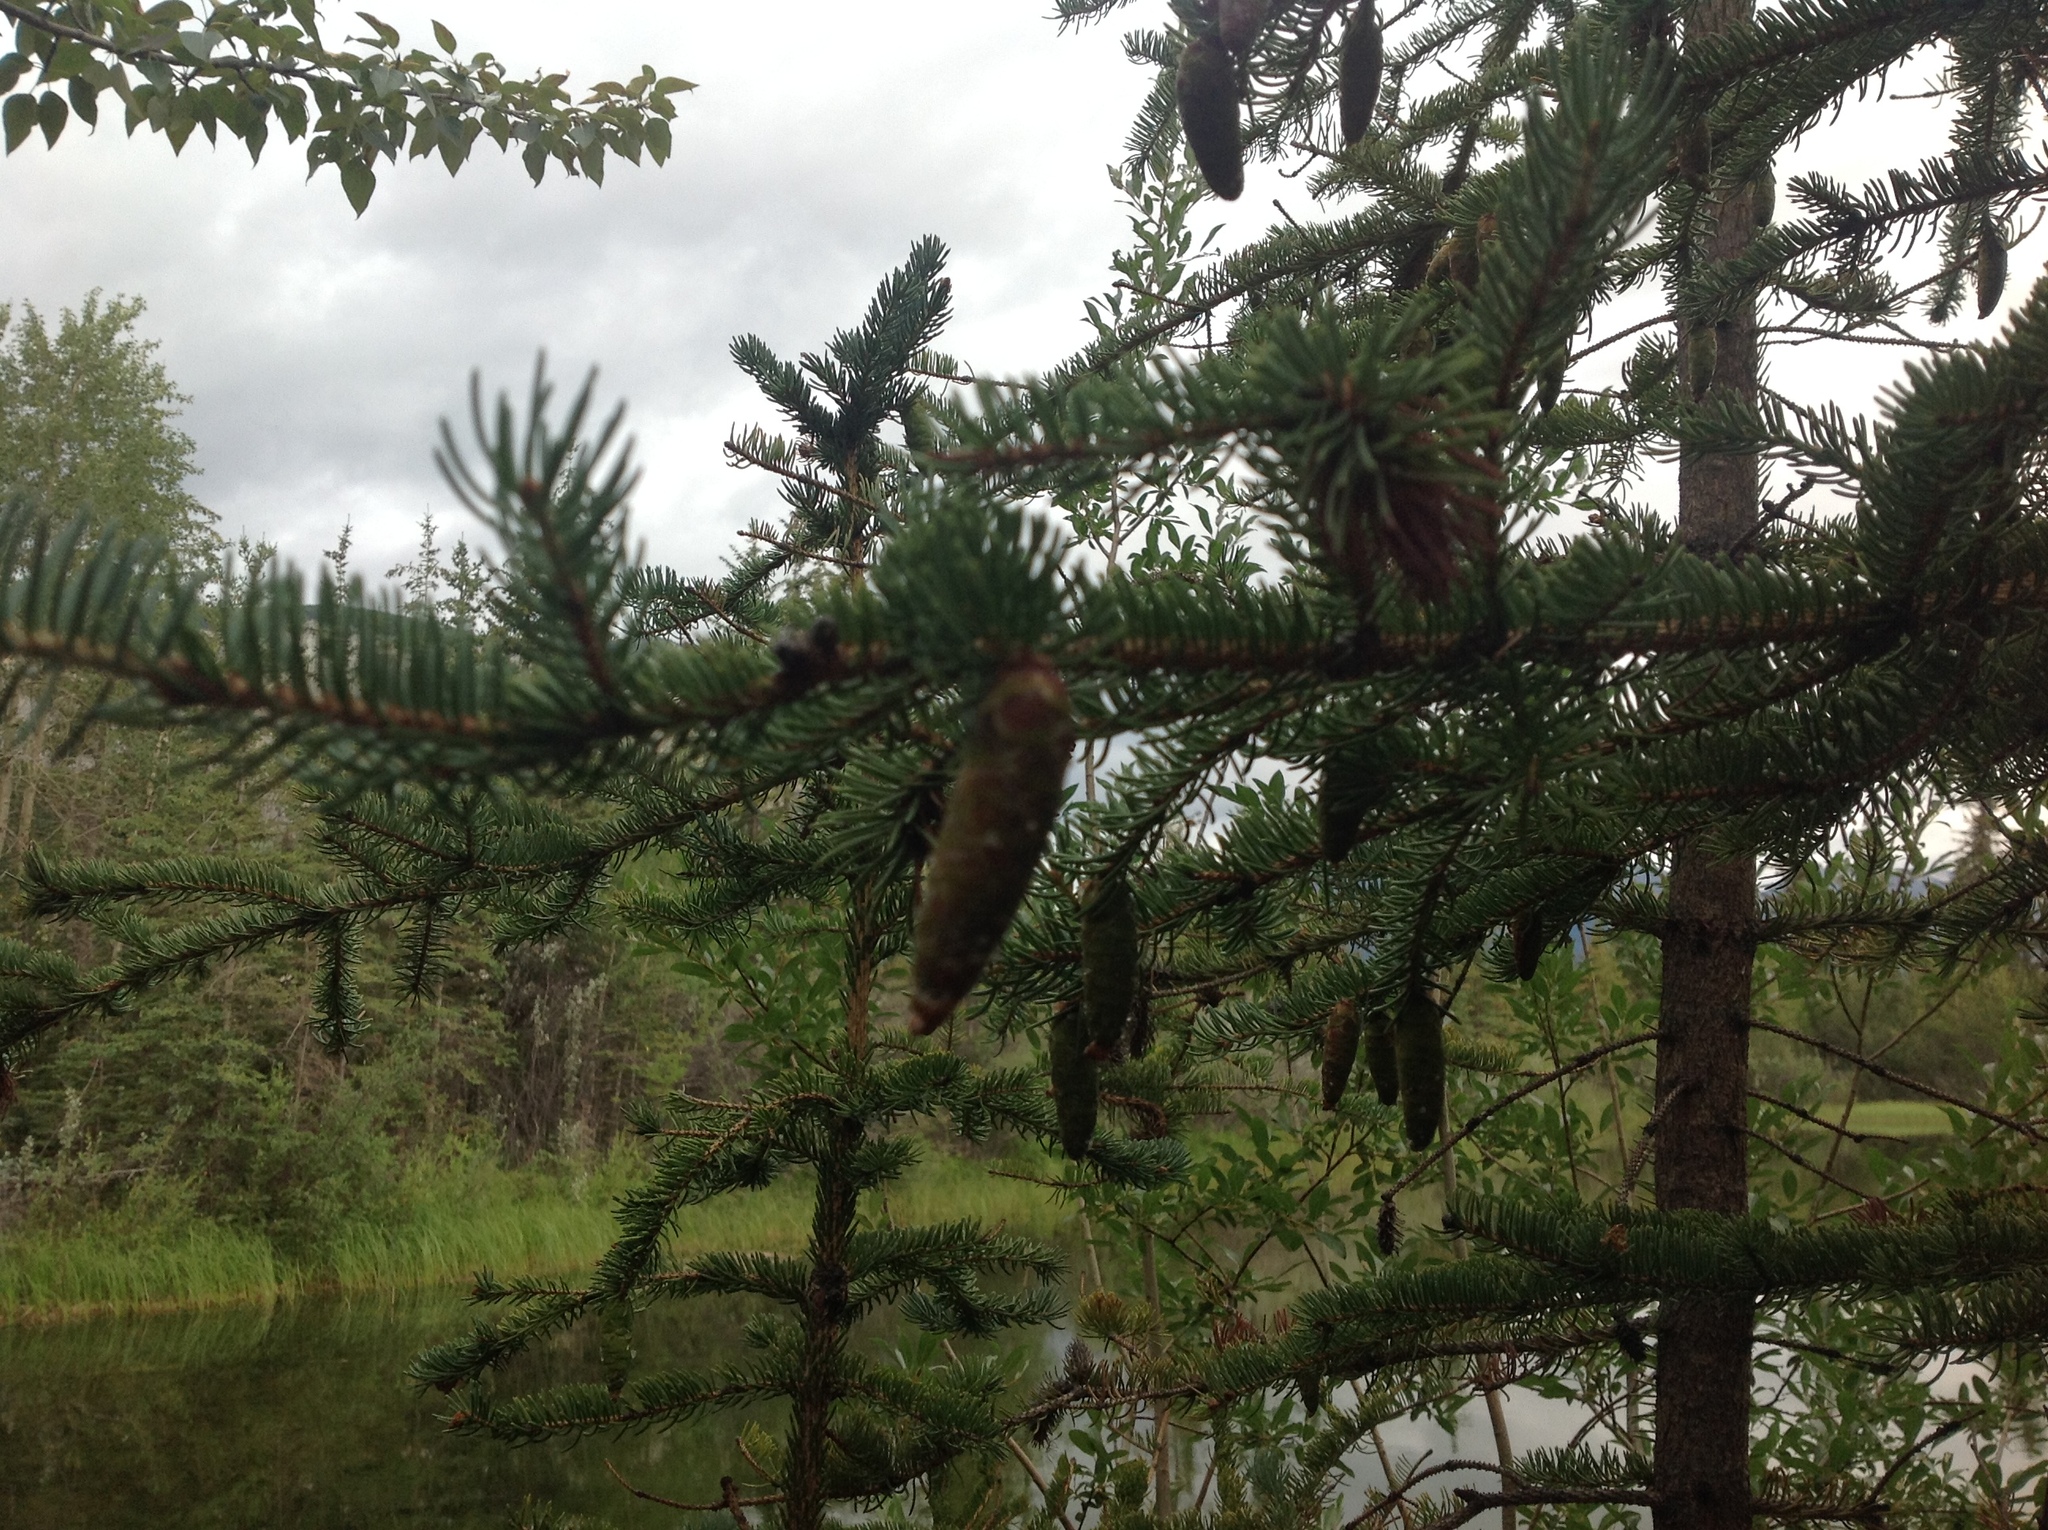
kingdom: Plantae
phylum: Tracheophyta
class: Pinopsida
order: Pinales
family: Pinaceae
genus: Picea
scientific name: Picea glauca
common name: White spruce
